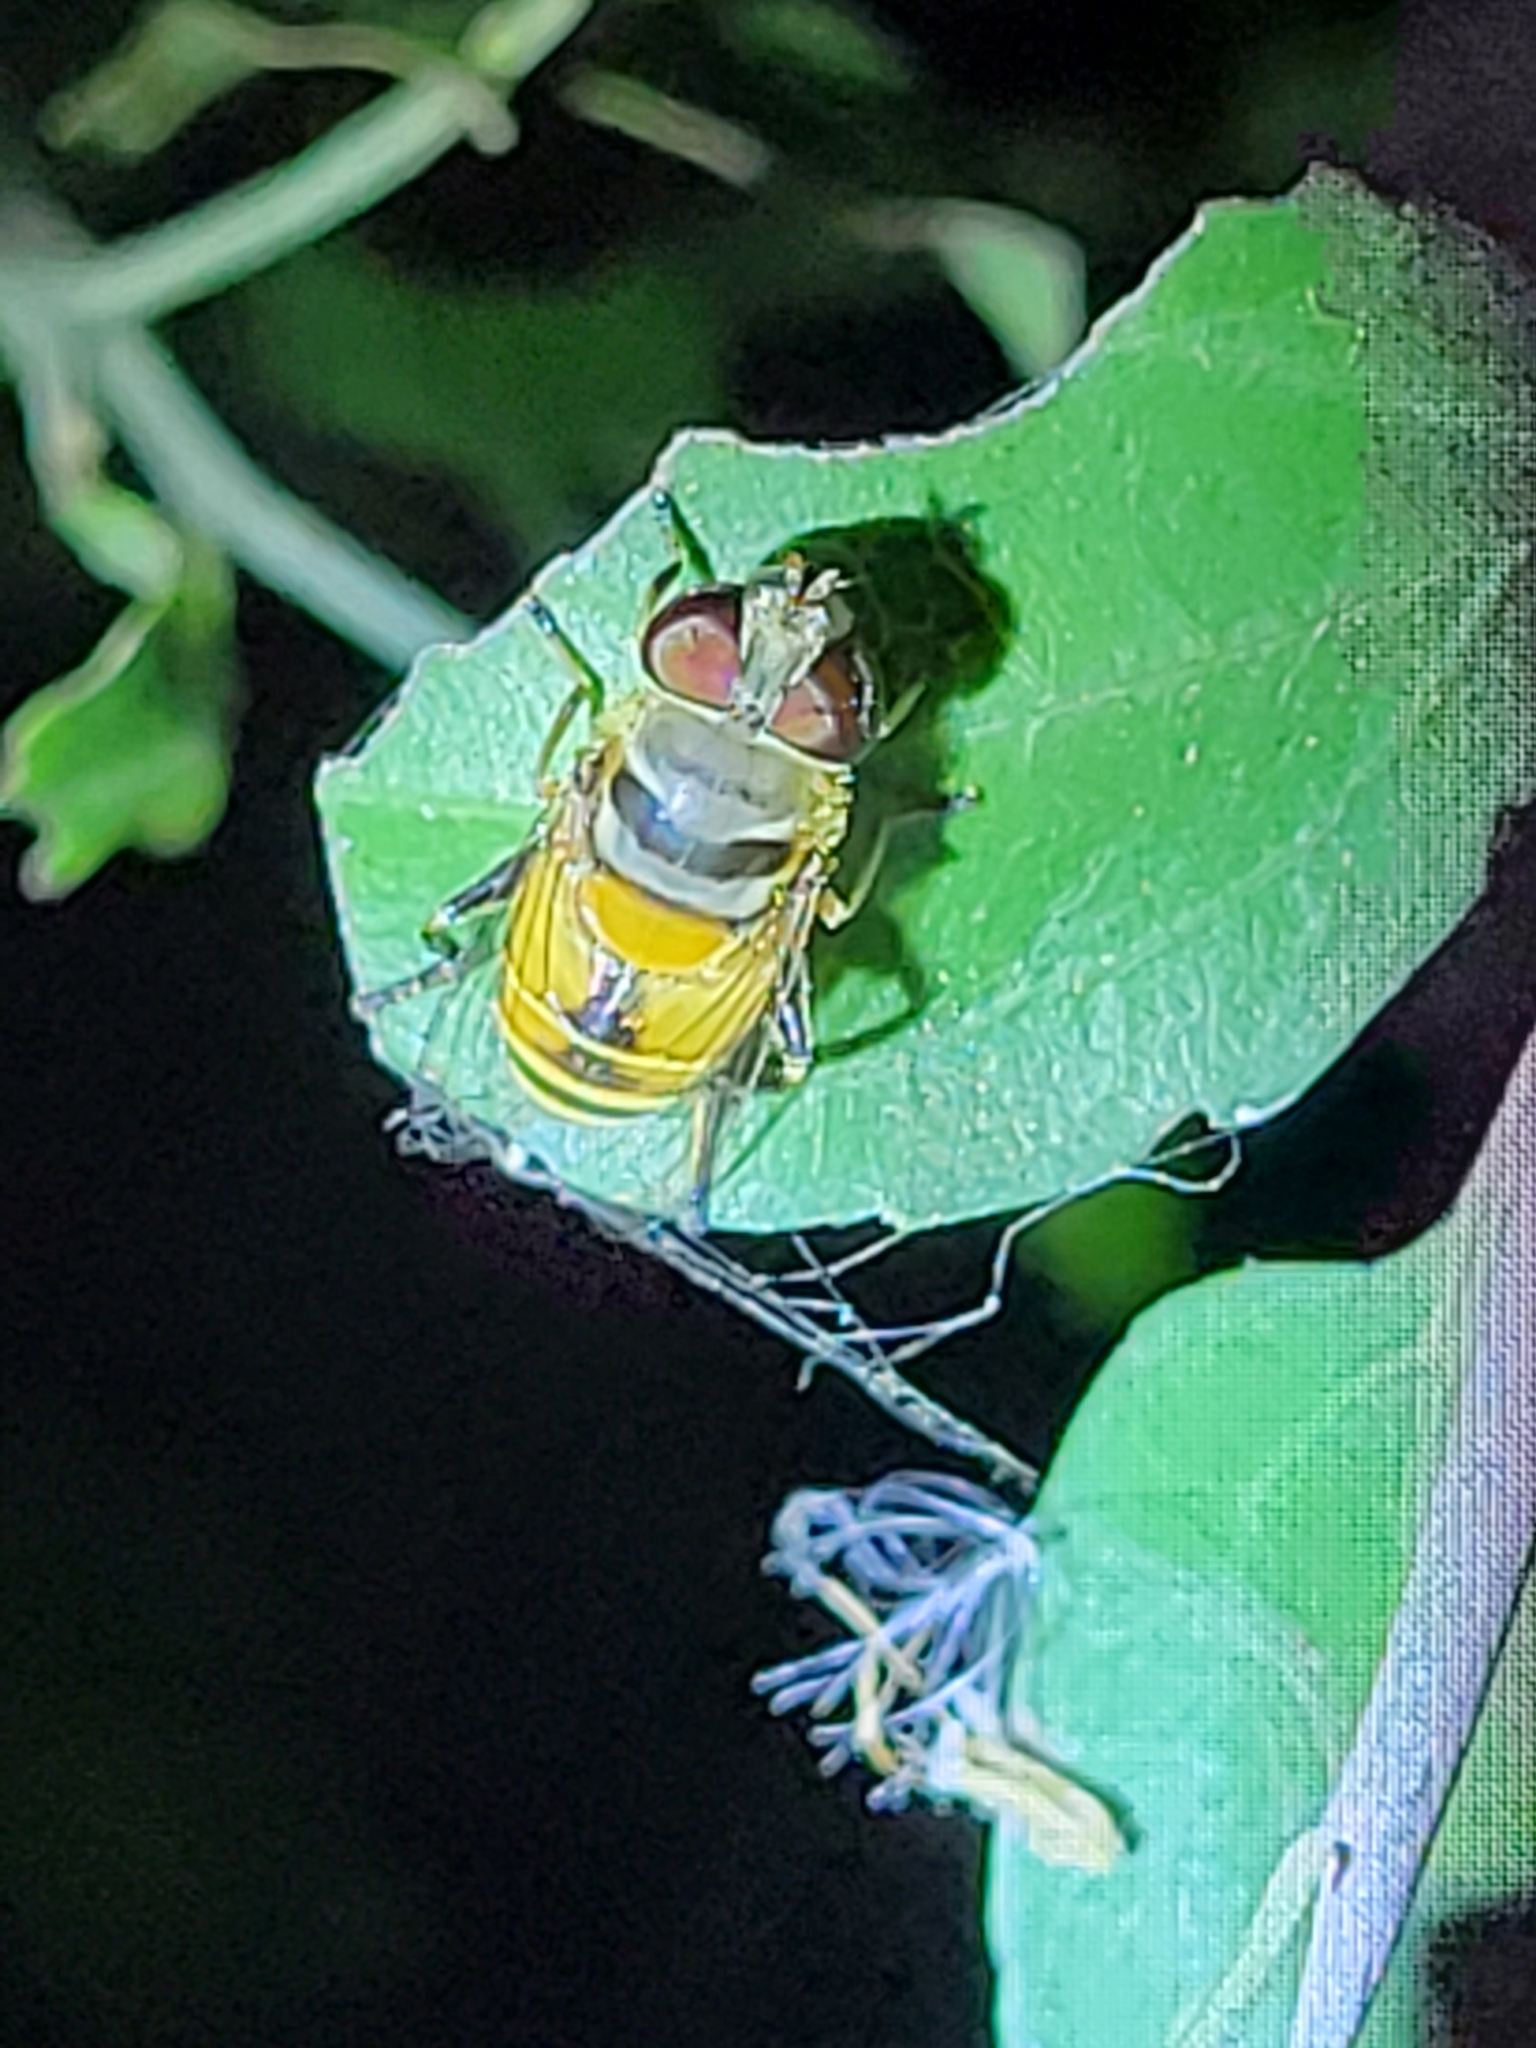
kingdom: Animalia
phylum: Arthropoda
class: Insecta
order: Diptera
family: Syrphidae
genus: Palpada
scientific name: Palpada alhambra
